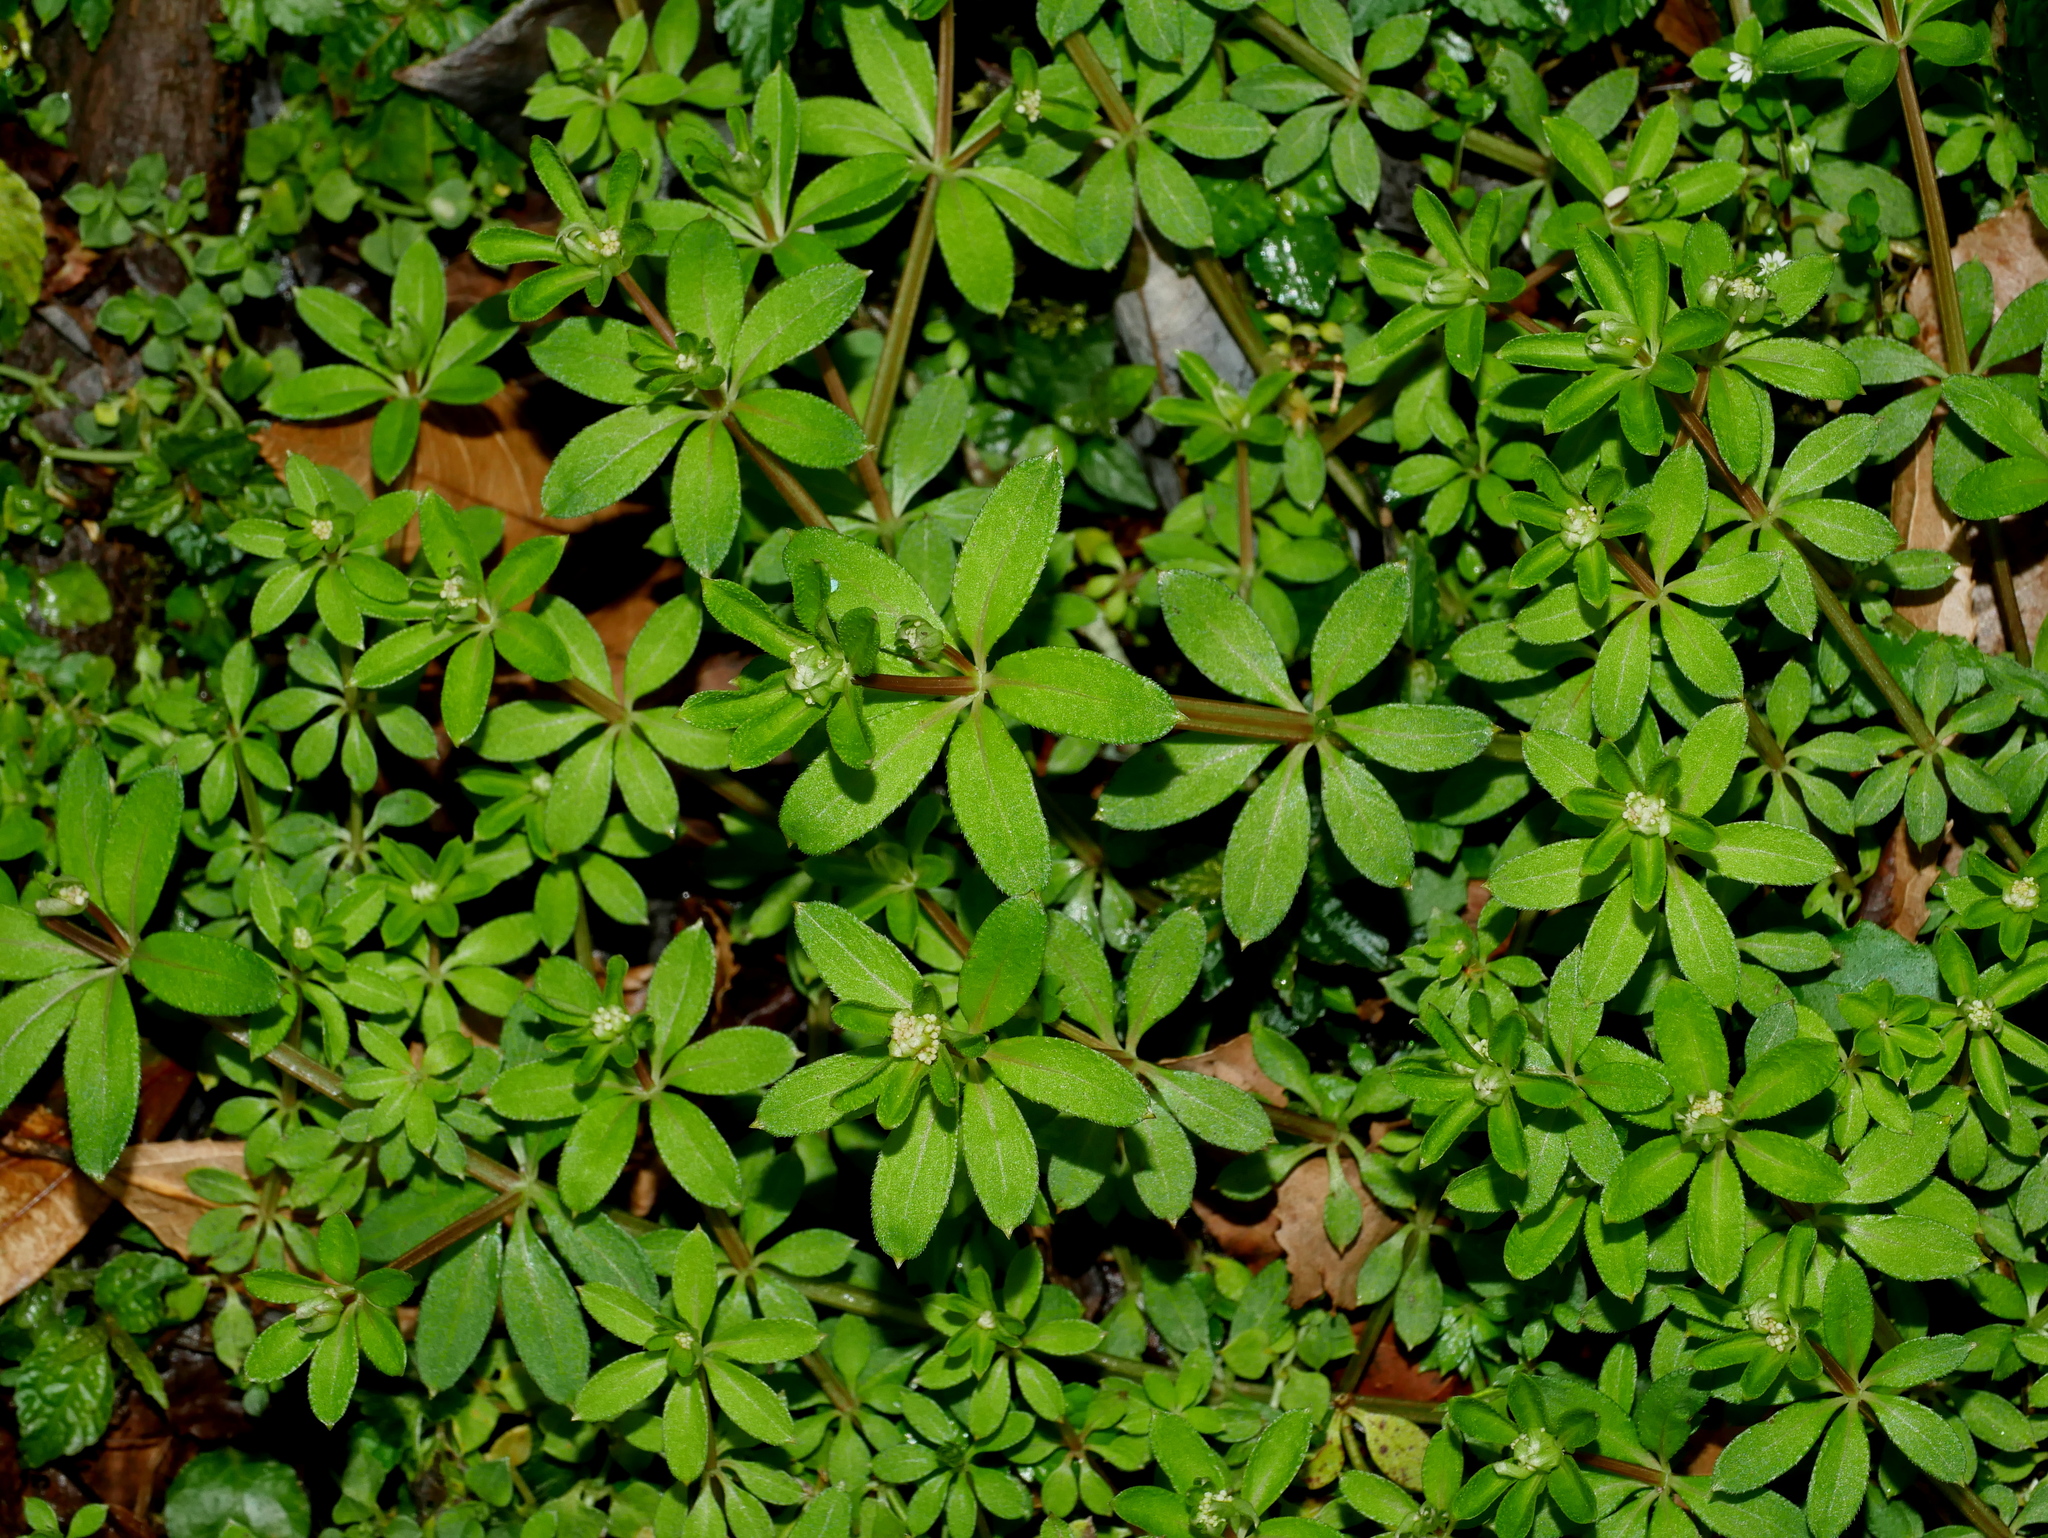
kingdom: Plantae
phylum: Tracheophyta
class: Magnoliopsida
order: Gentianales
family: Rubiaceae
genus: Galium
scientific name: Galium echinocarpum
